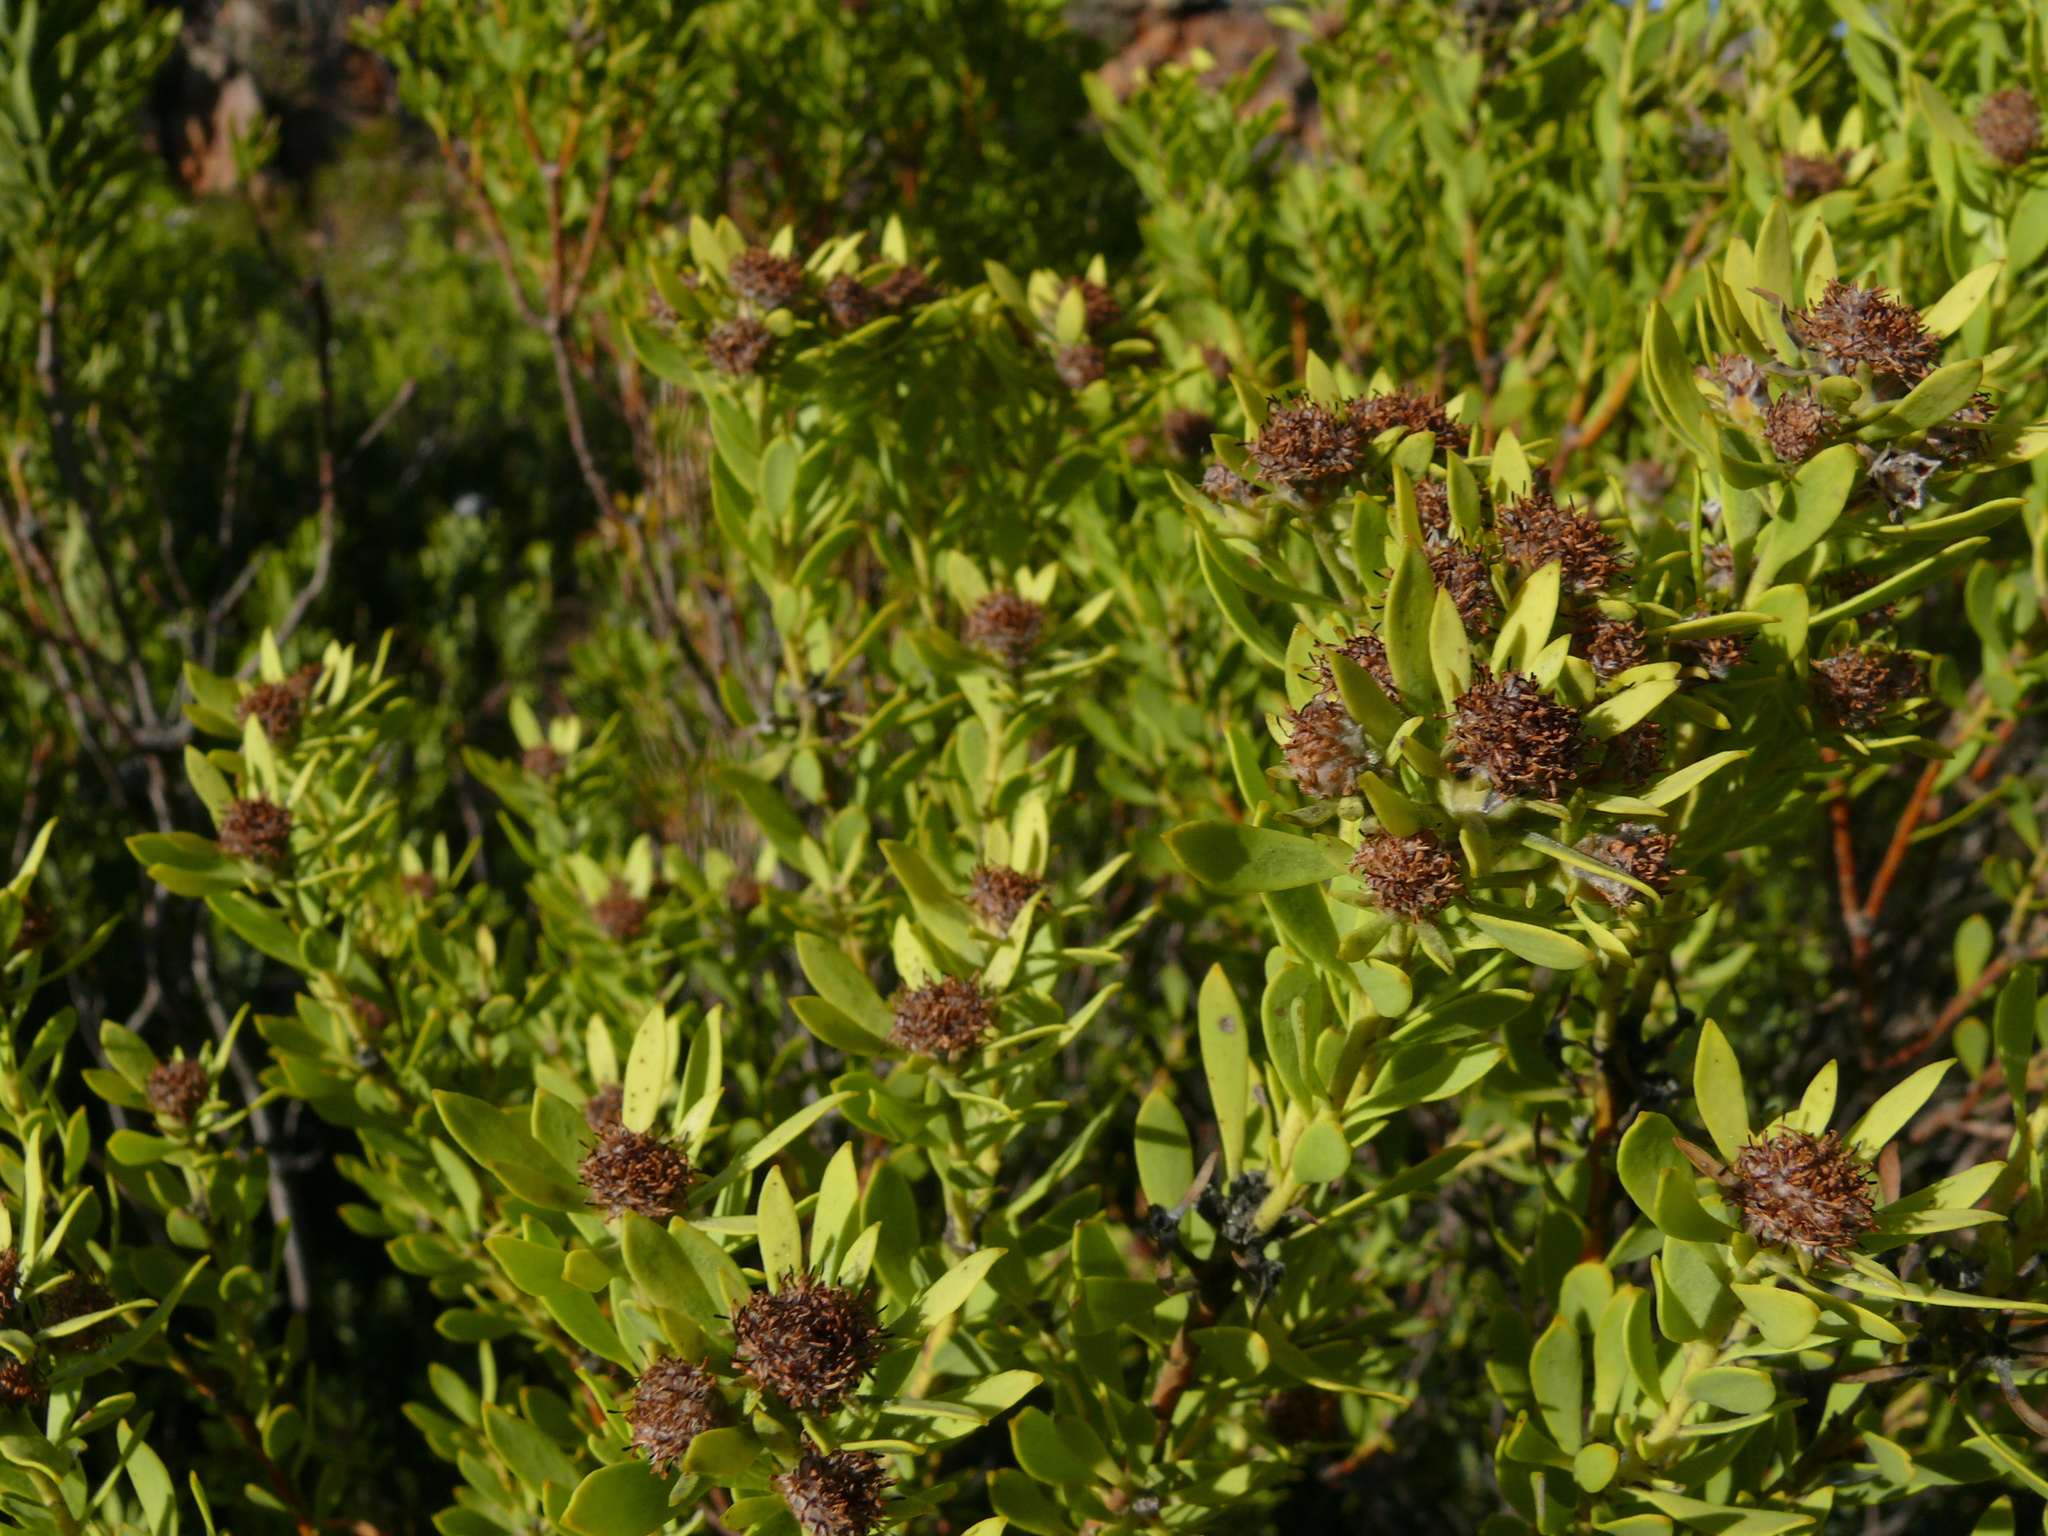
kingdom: Plantae
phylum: Tracheophyta
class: Magnoliopsida
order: Proteales
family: Proteaceae
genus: Leucadendron
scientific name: Leucadendron glaberrimum
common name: Common oily conebush
